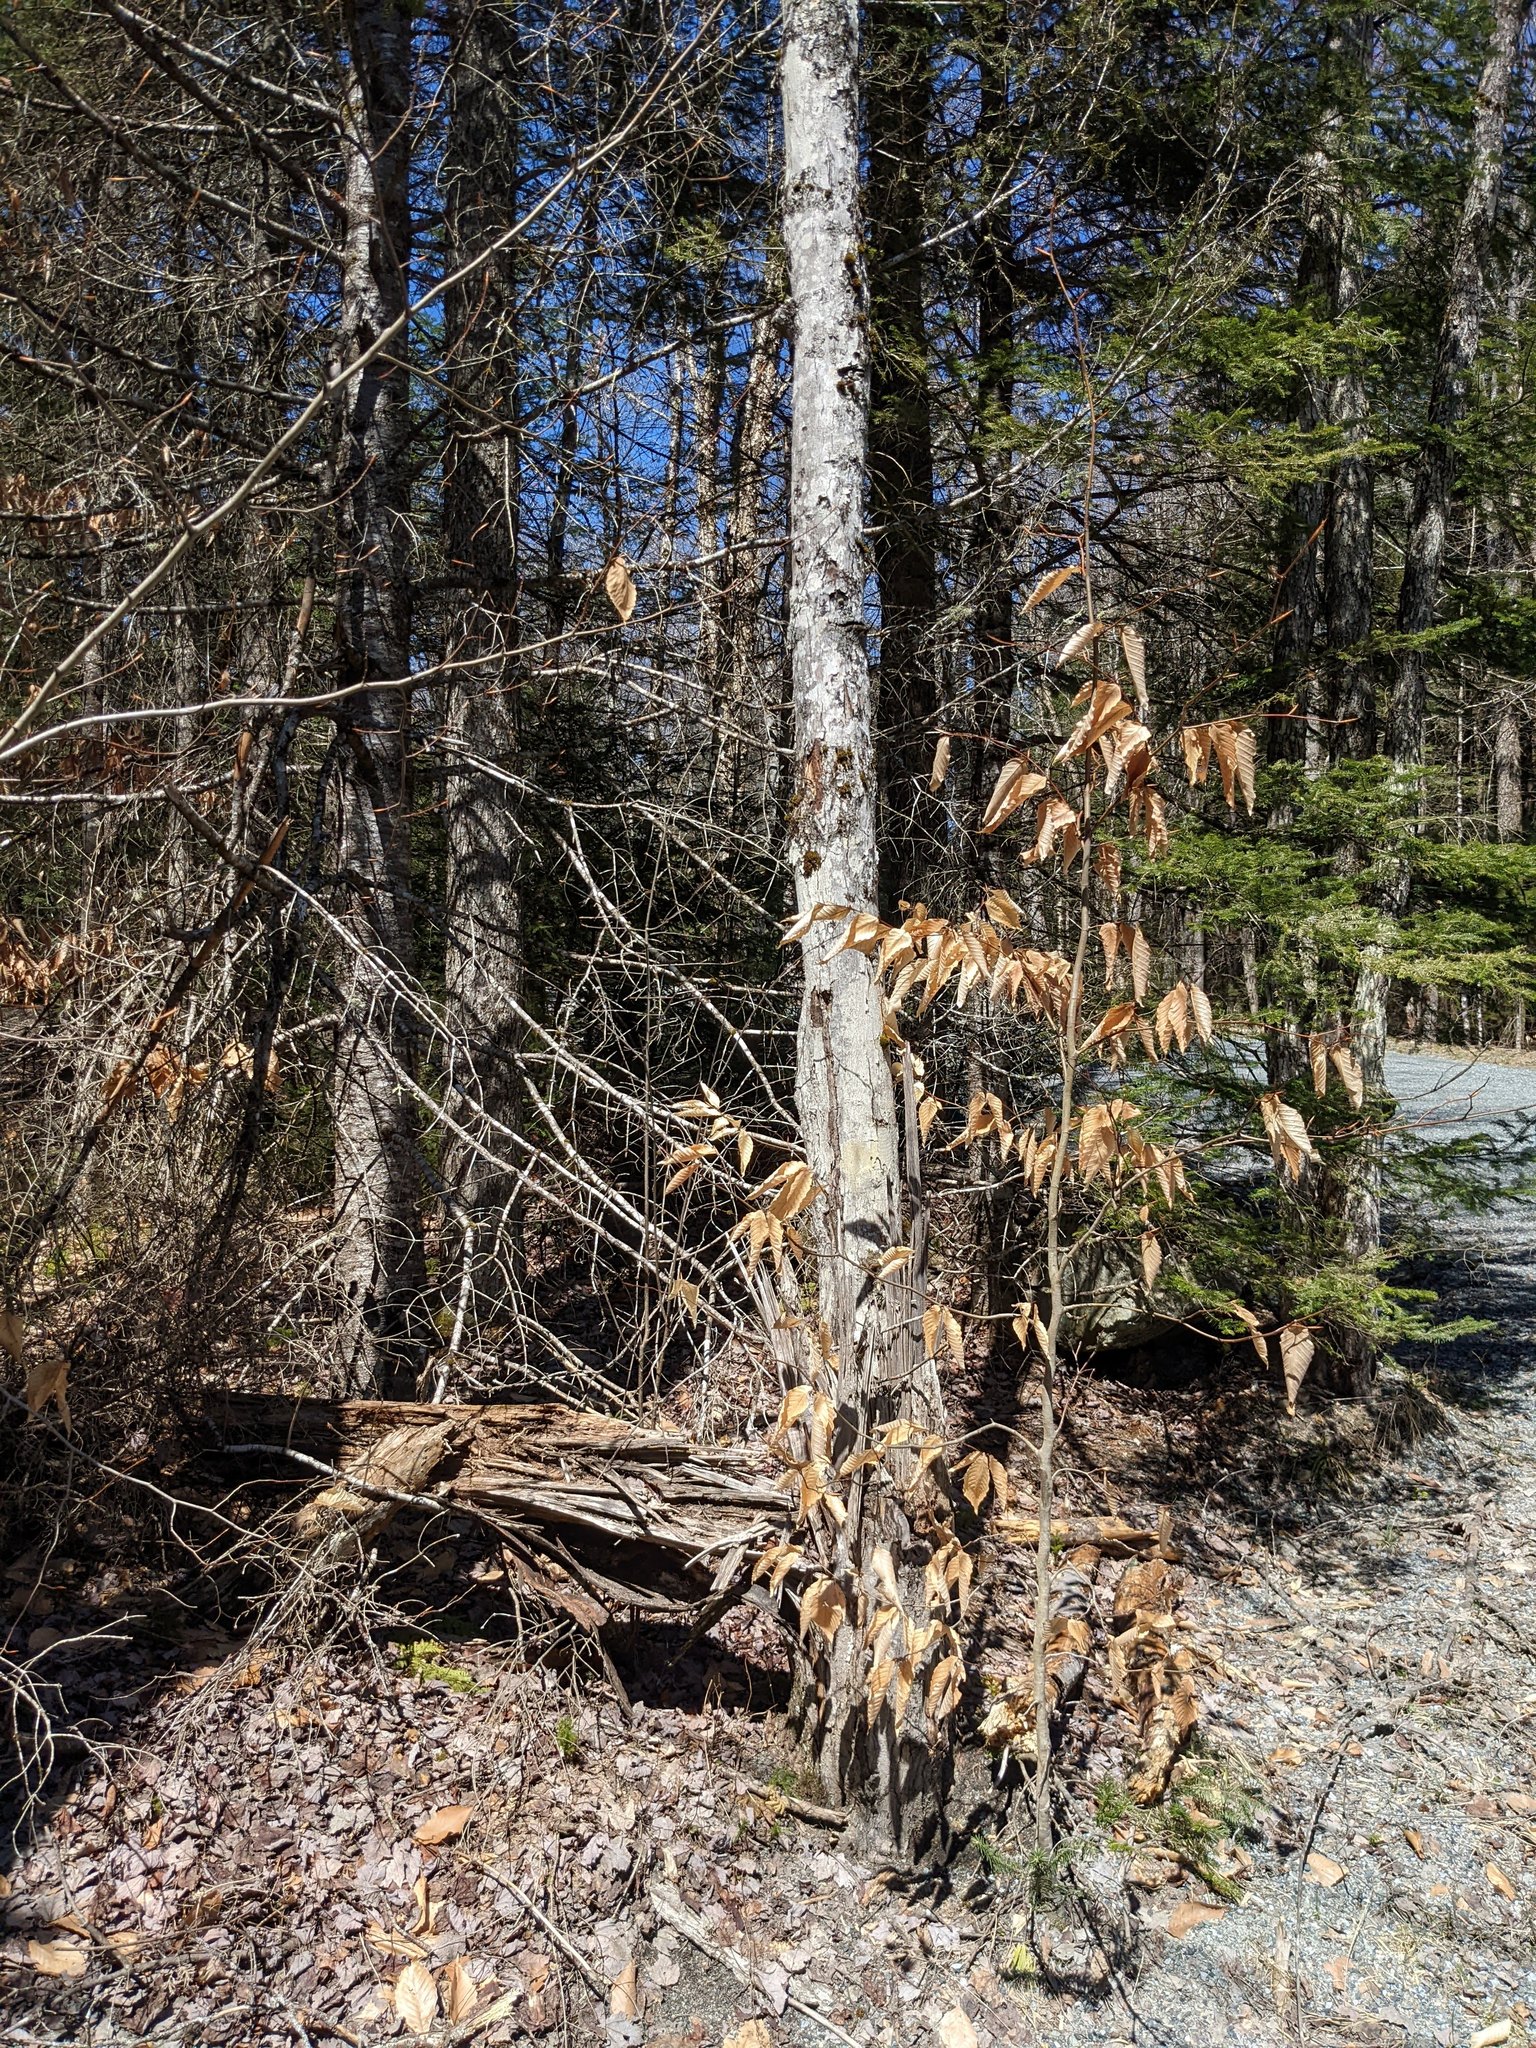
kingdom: Plantae
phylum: Tracheophyta
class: Magnoliopsida
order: Fagales
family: Fagaceae
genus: Fagus
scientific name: Fagus grandifolia
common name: American beech
